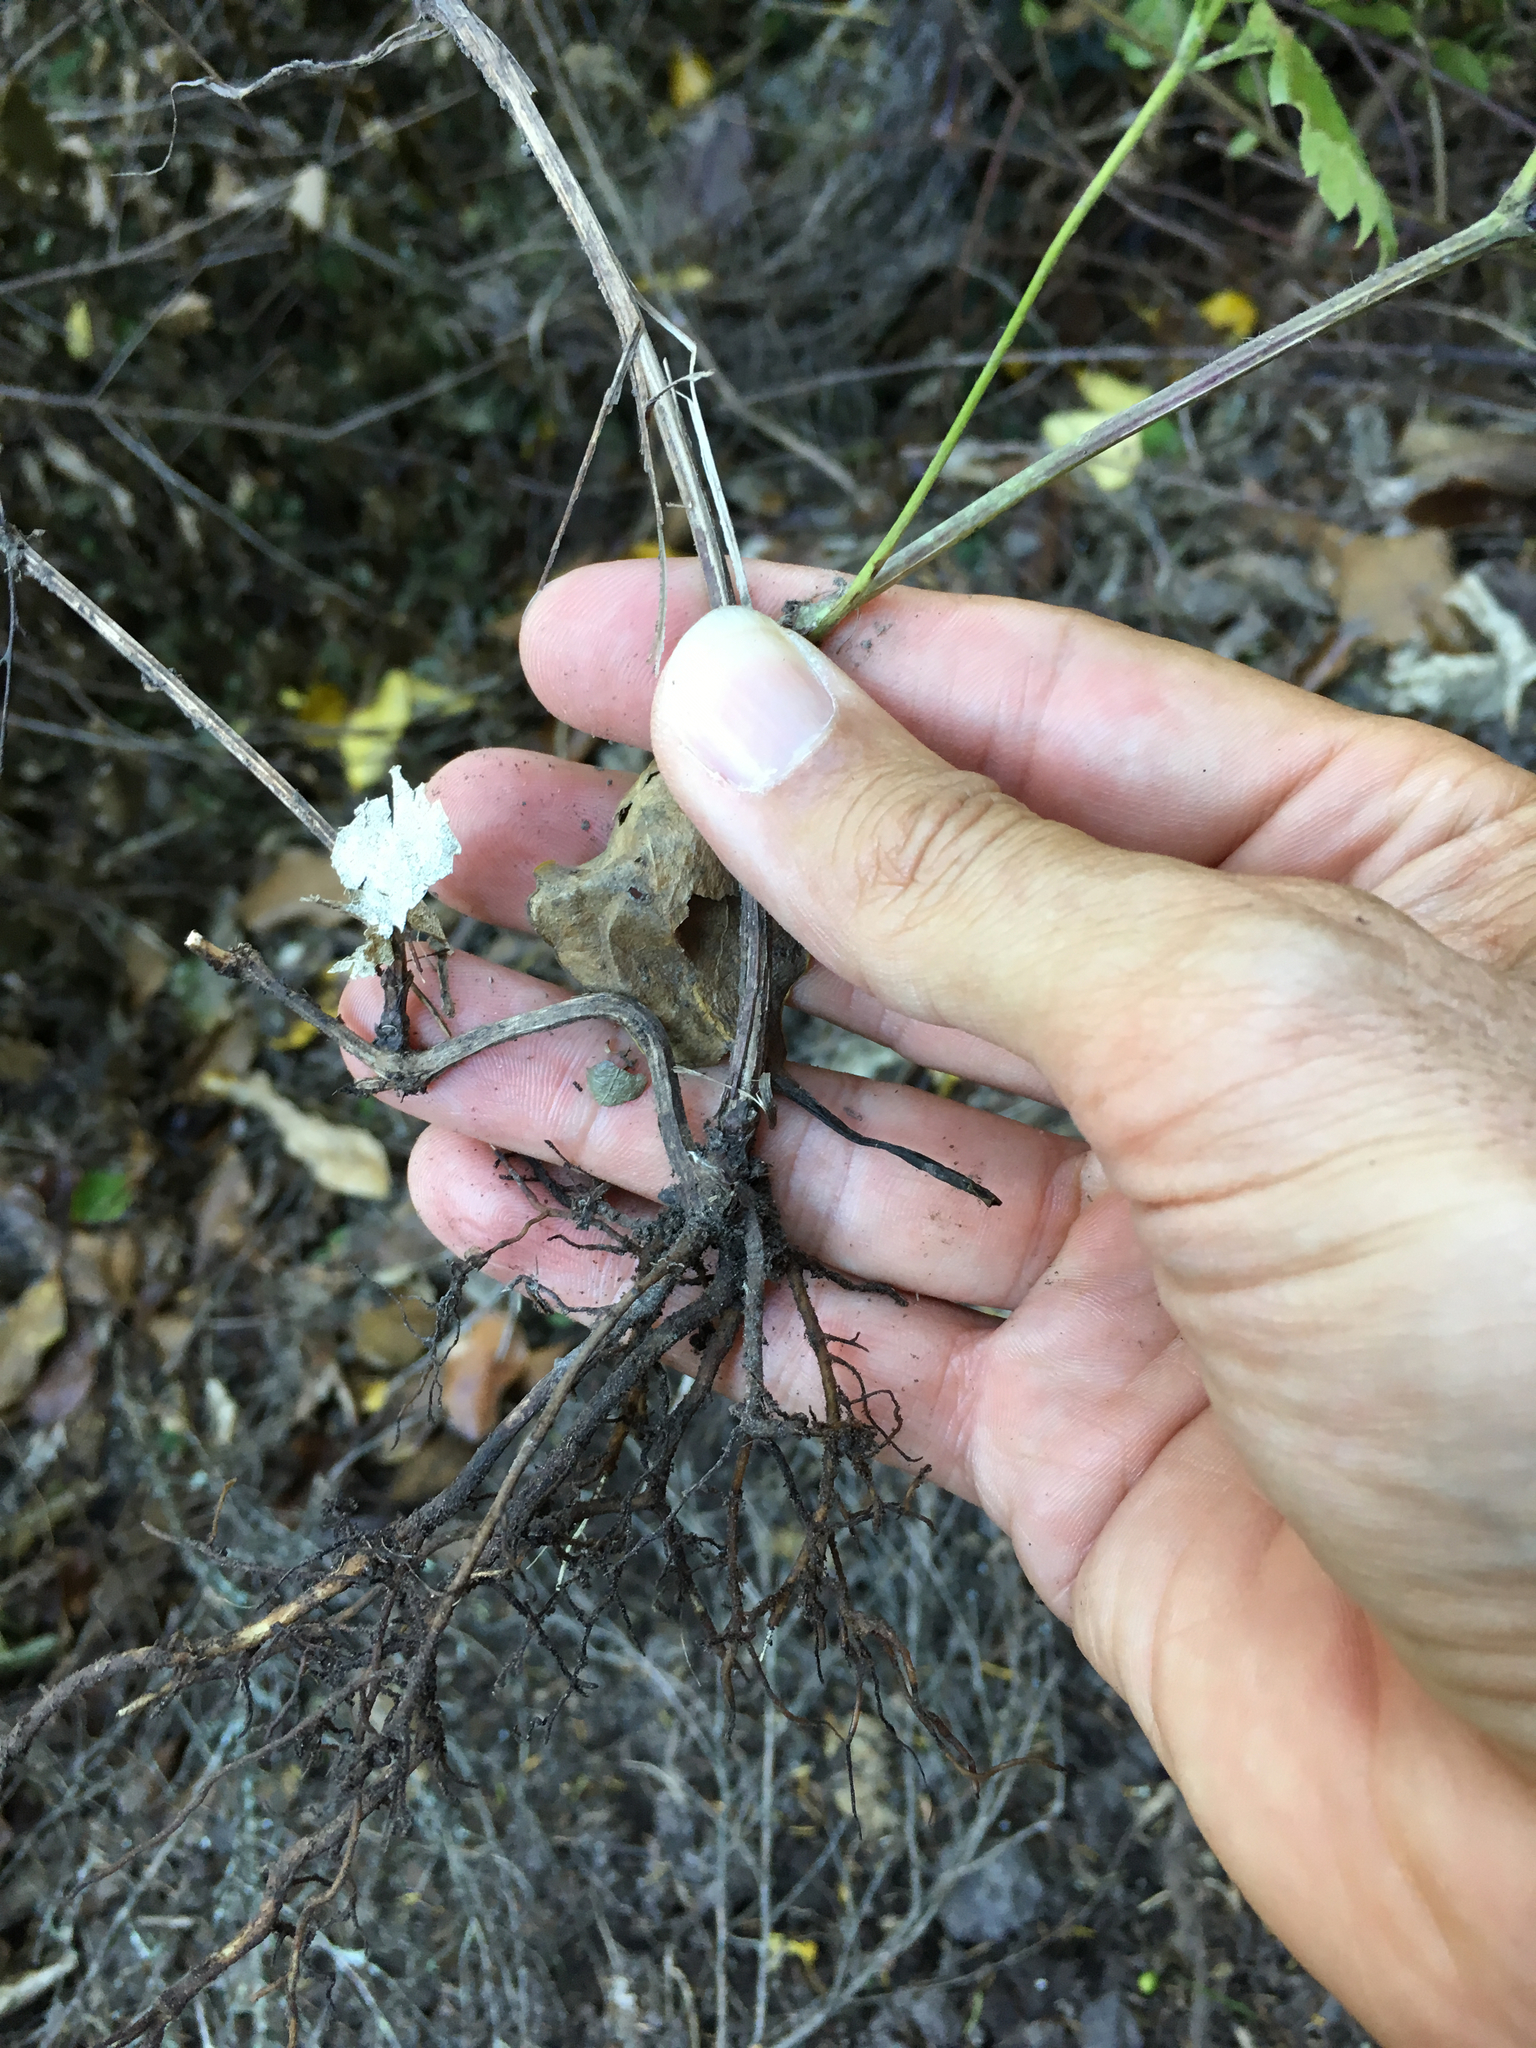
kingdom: Plantae
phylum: Tracheophyta
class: Magnoliopsida
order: Ranunculales
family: Ranunculaceae
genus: Clematis
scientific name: Clematis vitalba
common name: Evergreen clematis
